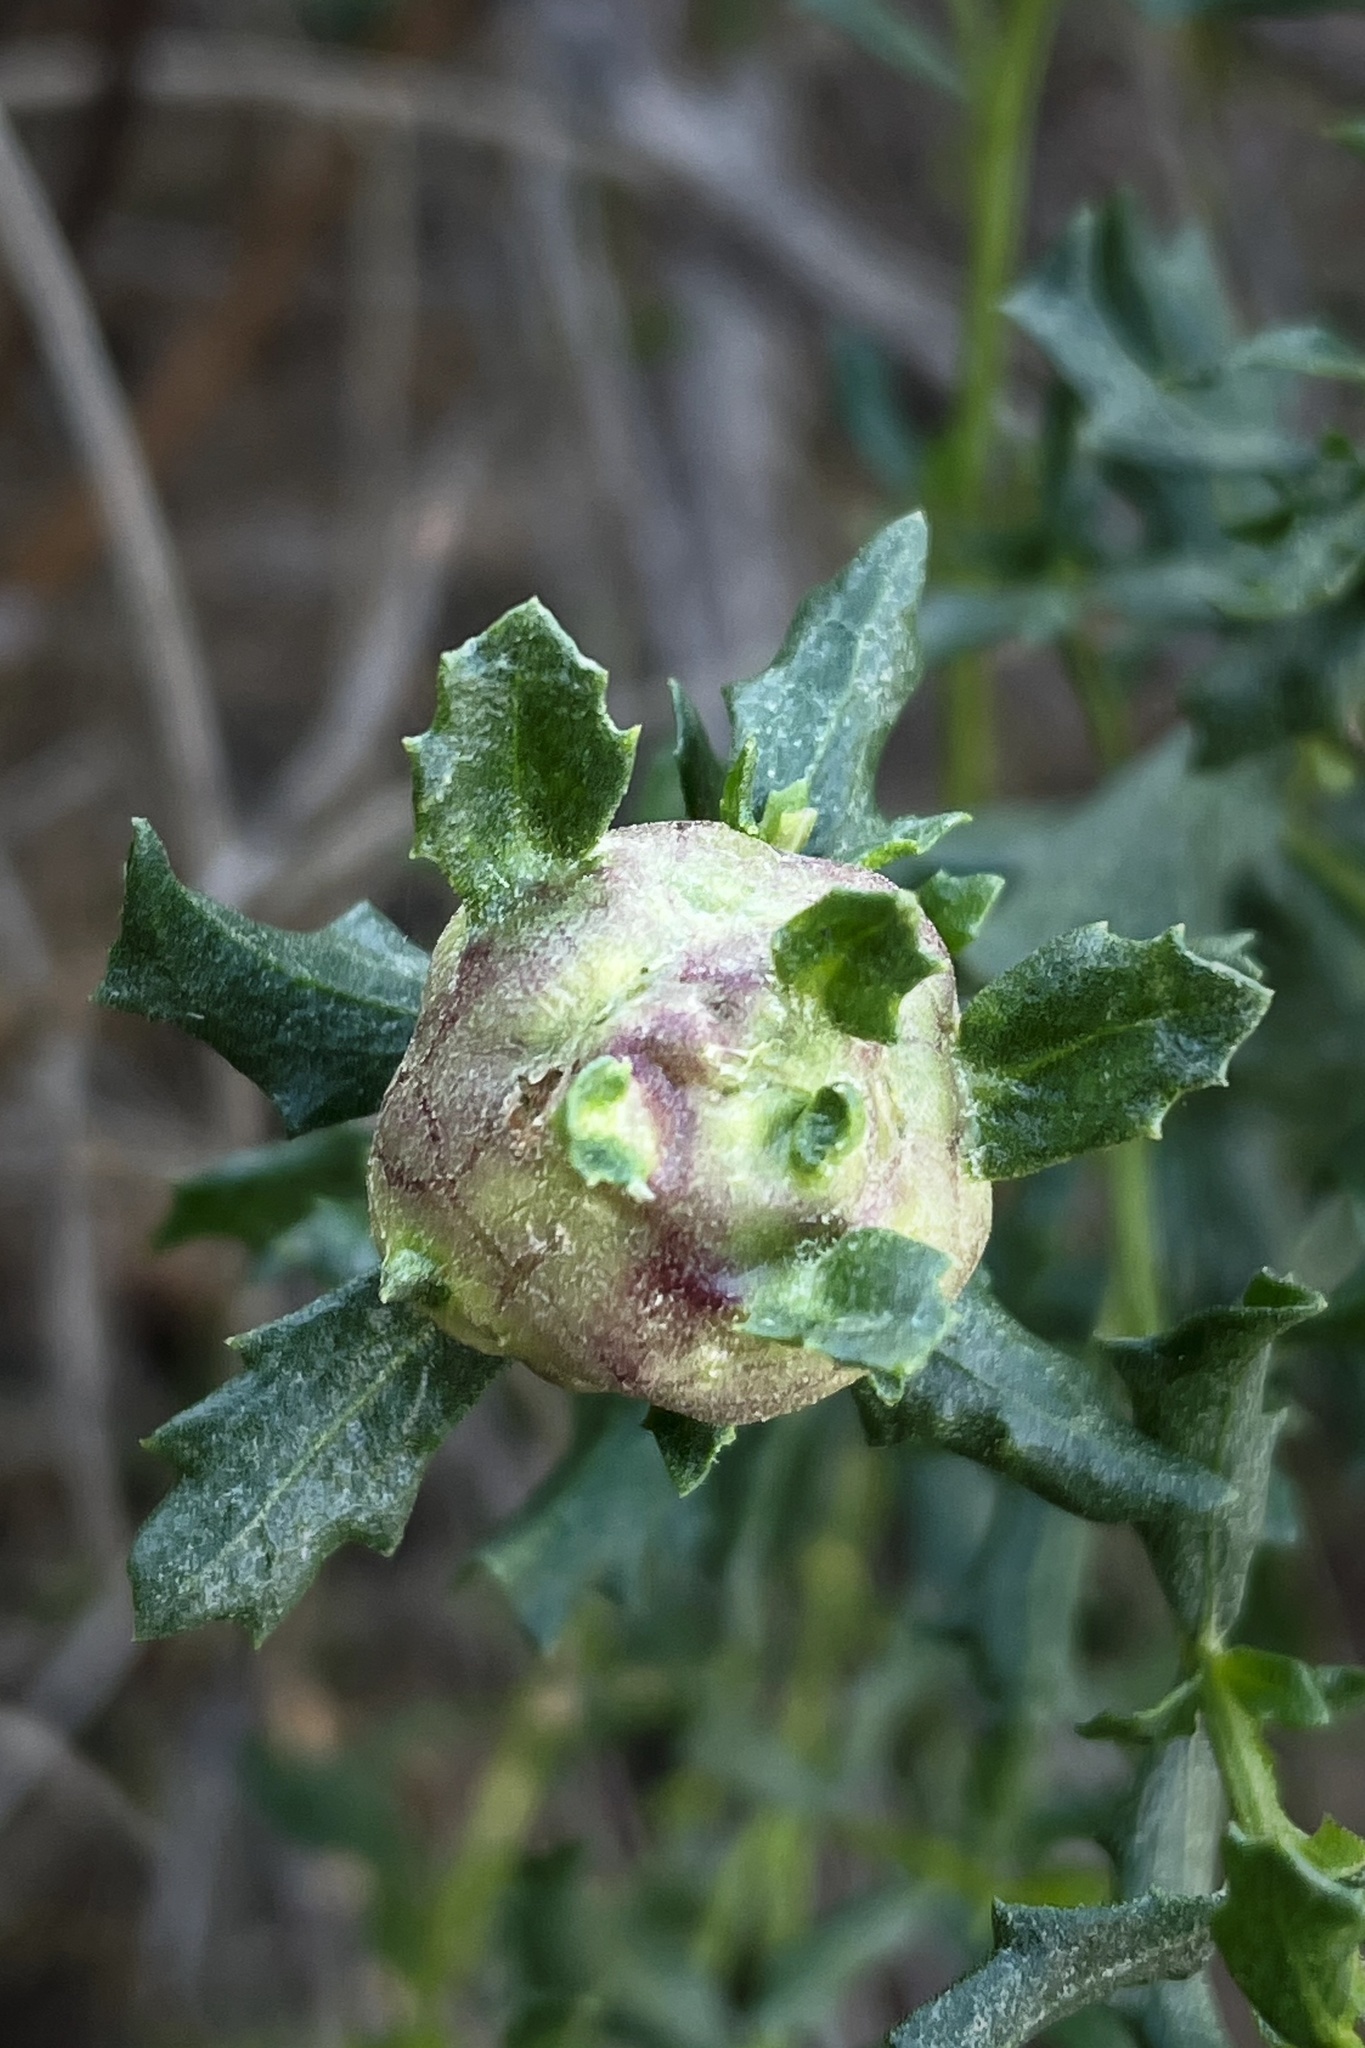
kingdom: Animalia
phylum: Arthropoda
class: Insecta
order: Diptera
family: Cecidomyiidae
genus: Rhopalomyia
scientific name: Rhopalomyia californica
